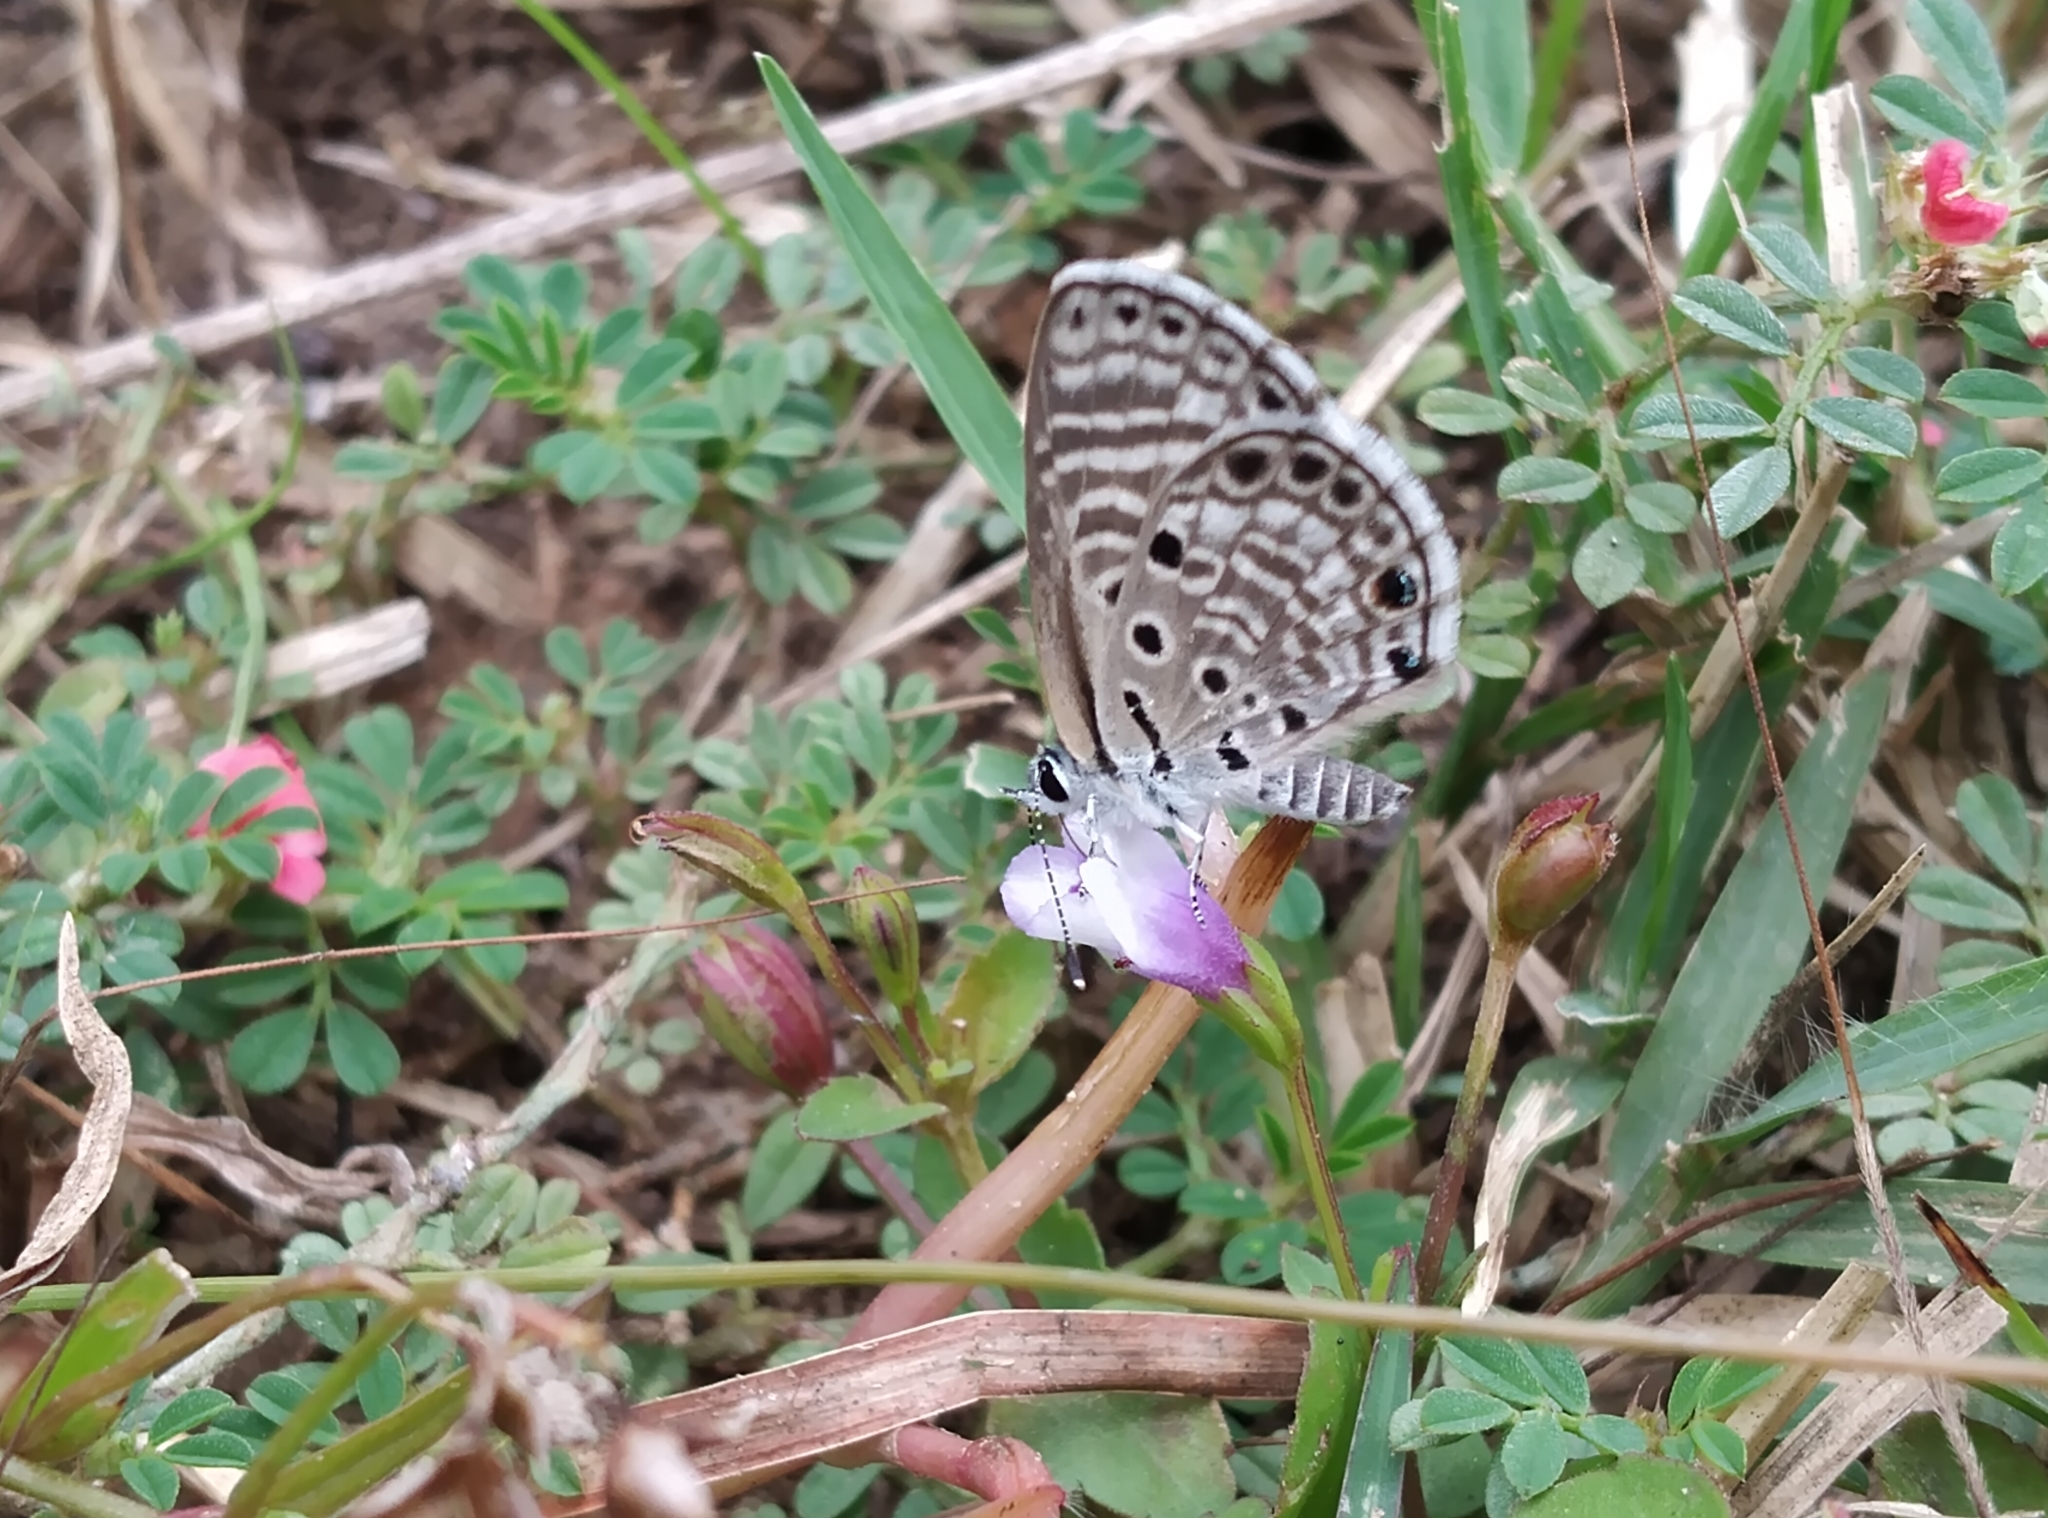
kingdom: Animalia
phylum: Arthropoda
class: Insecta
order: Lepidoptera
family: Lycaenidae
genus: Azanus
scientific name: Azanus jesous
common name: African babul blue
